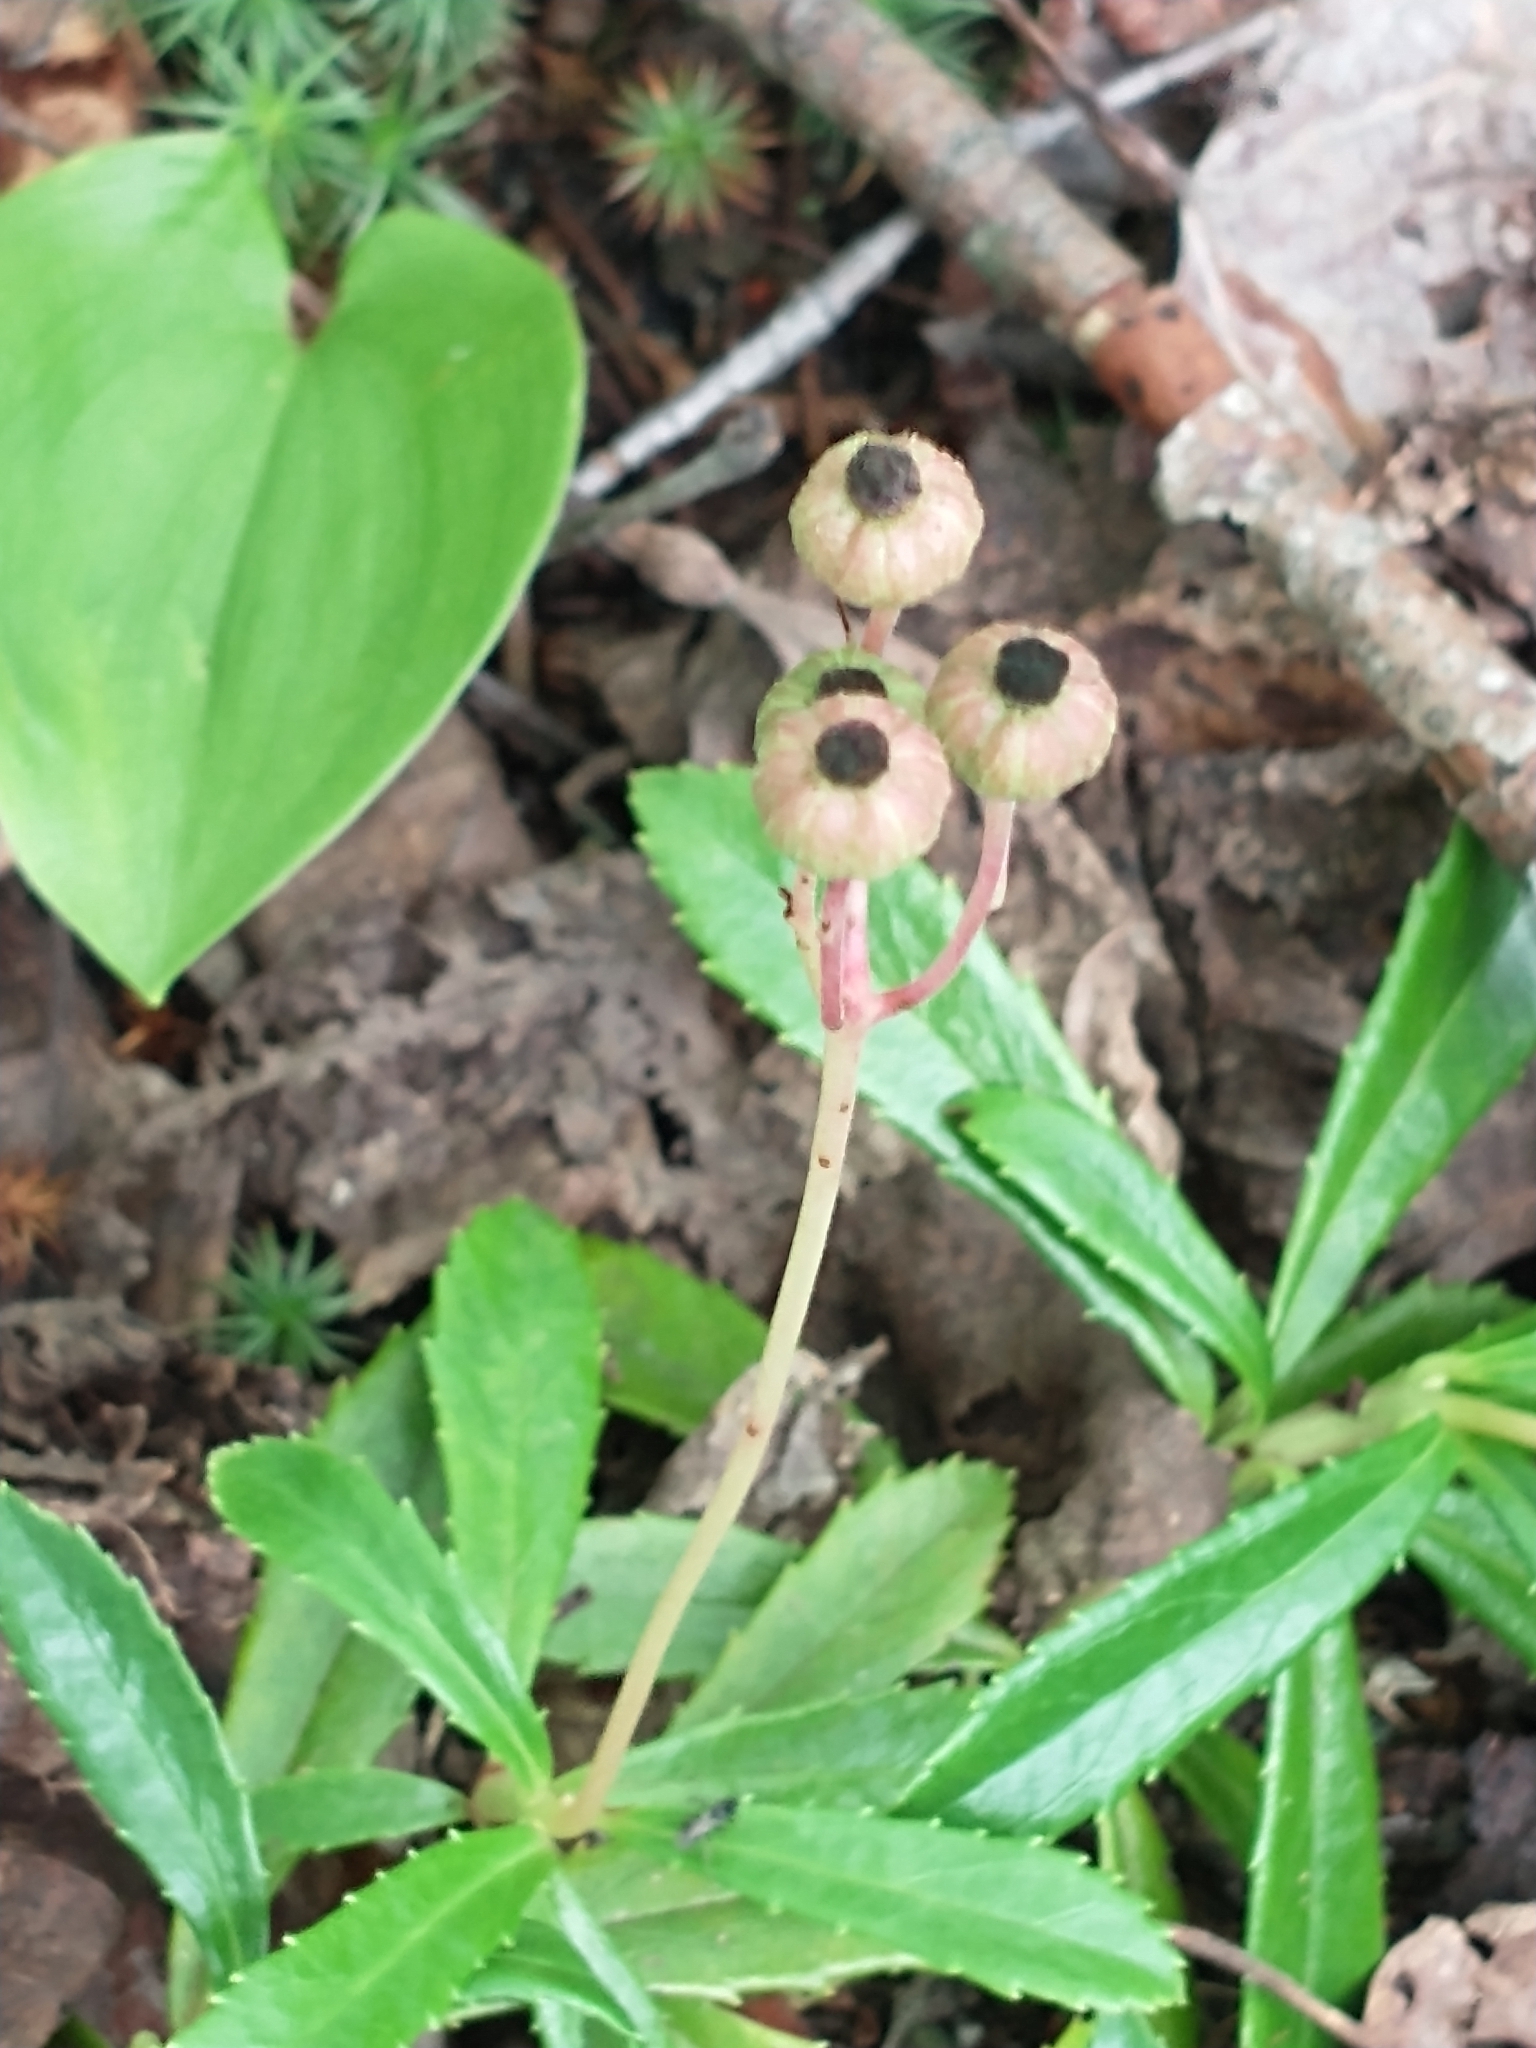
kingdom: Plantae
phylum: Tracheophyta
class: Magnoliopsida
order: Ericales
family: Ericaceae
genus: Chimaphila
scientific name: Chimaphila umbellata
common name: Pipsissewa
